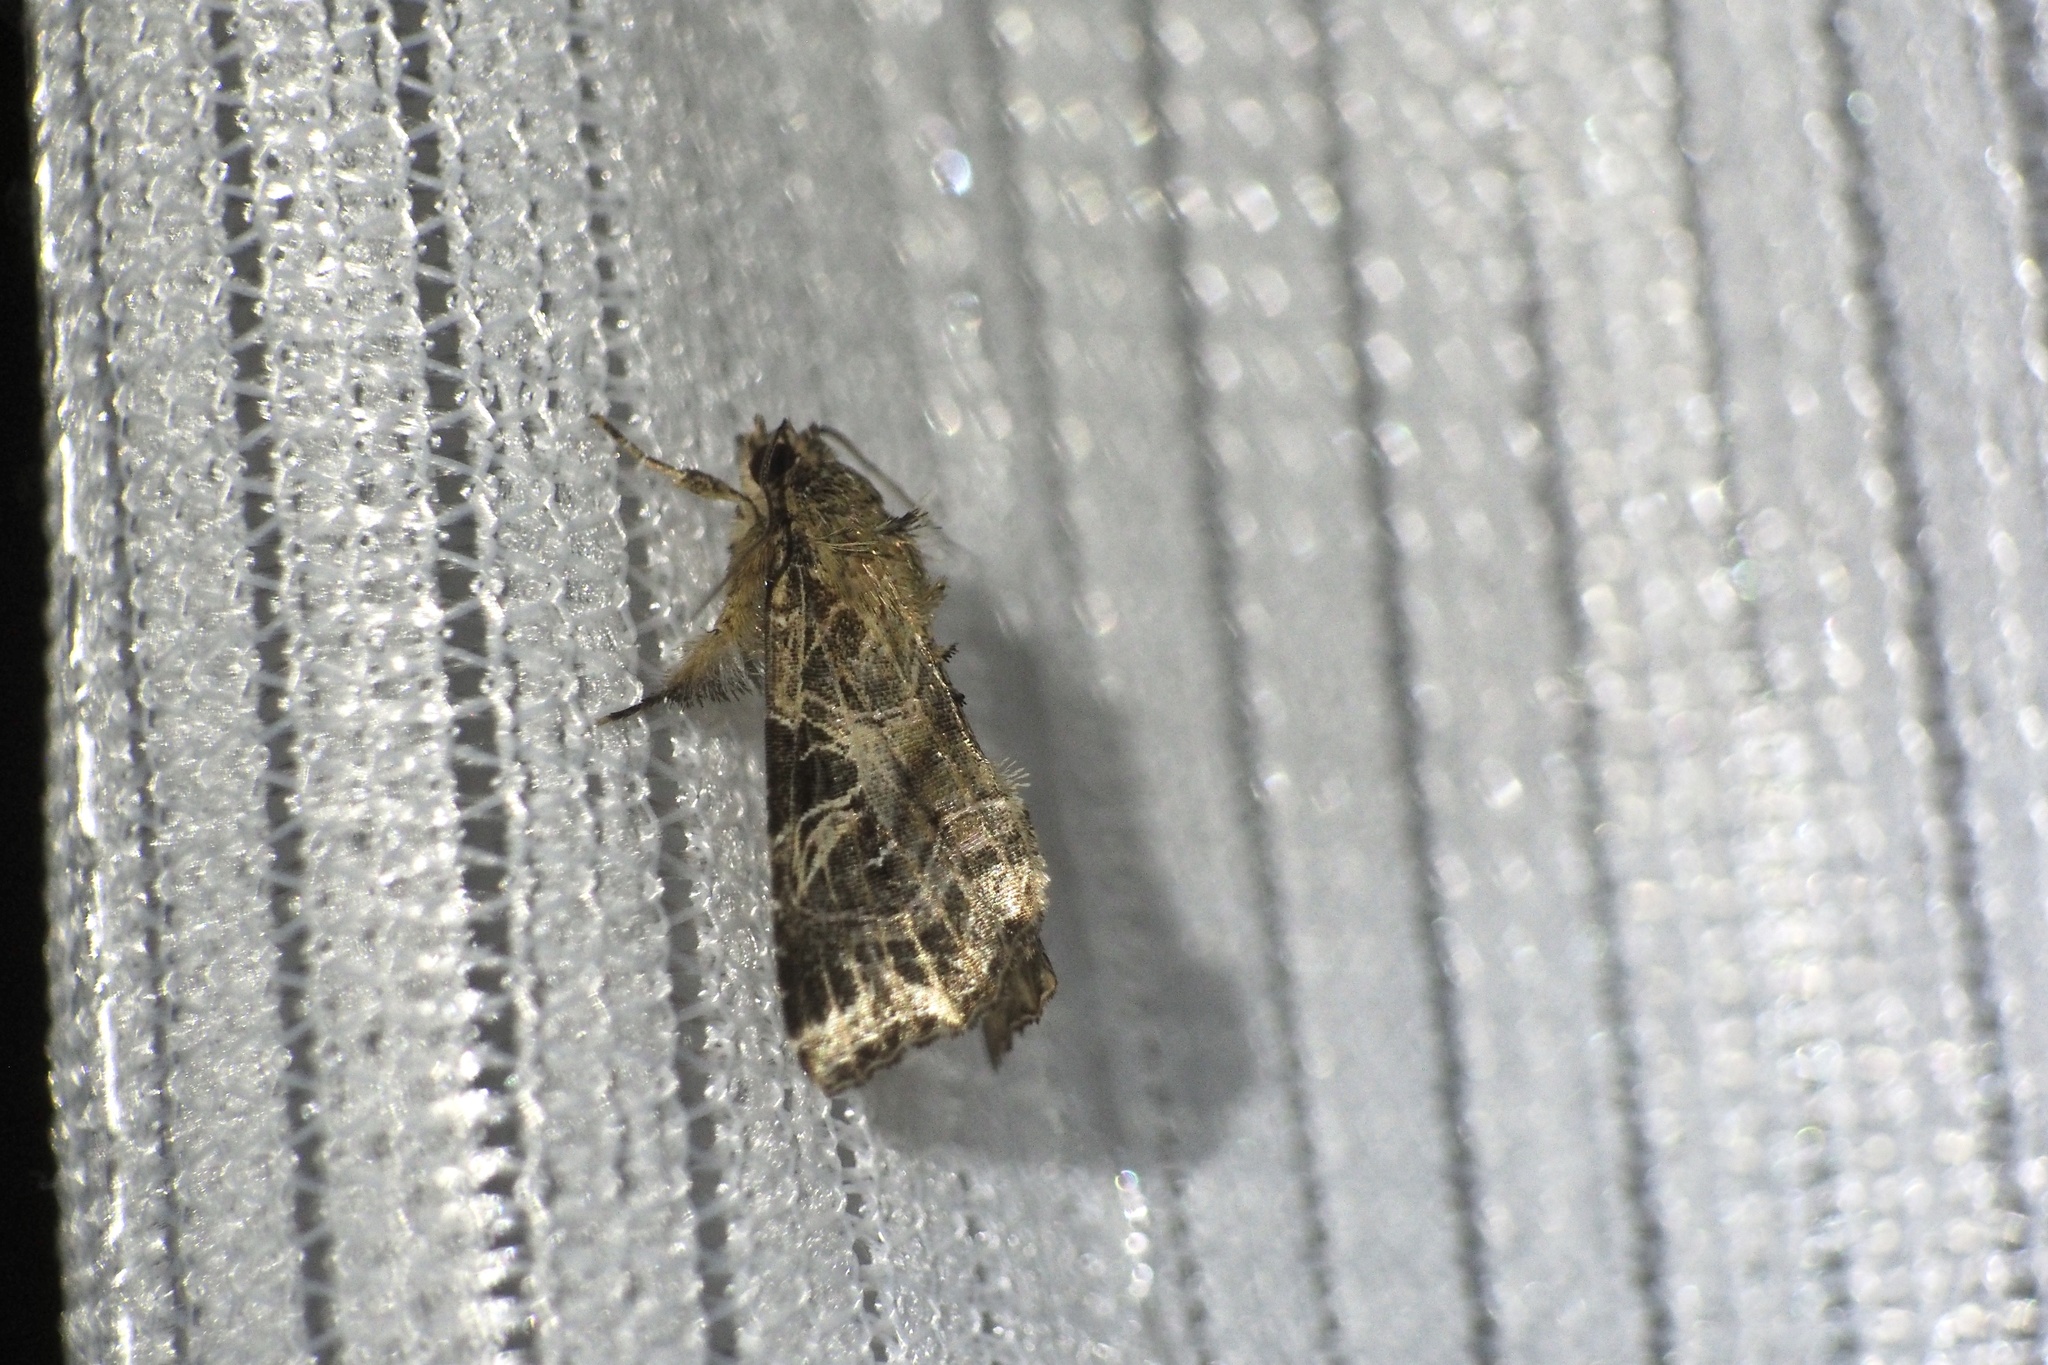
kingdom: Animalia
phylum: Arthropoda
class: Insecta
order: Lepidoptera
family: Noctuidae
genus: Callopistria
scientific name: Callopistria pulchrilinea
